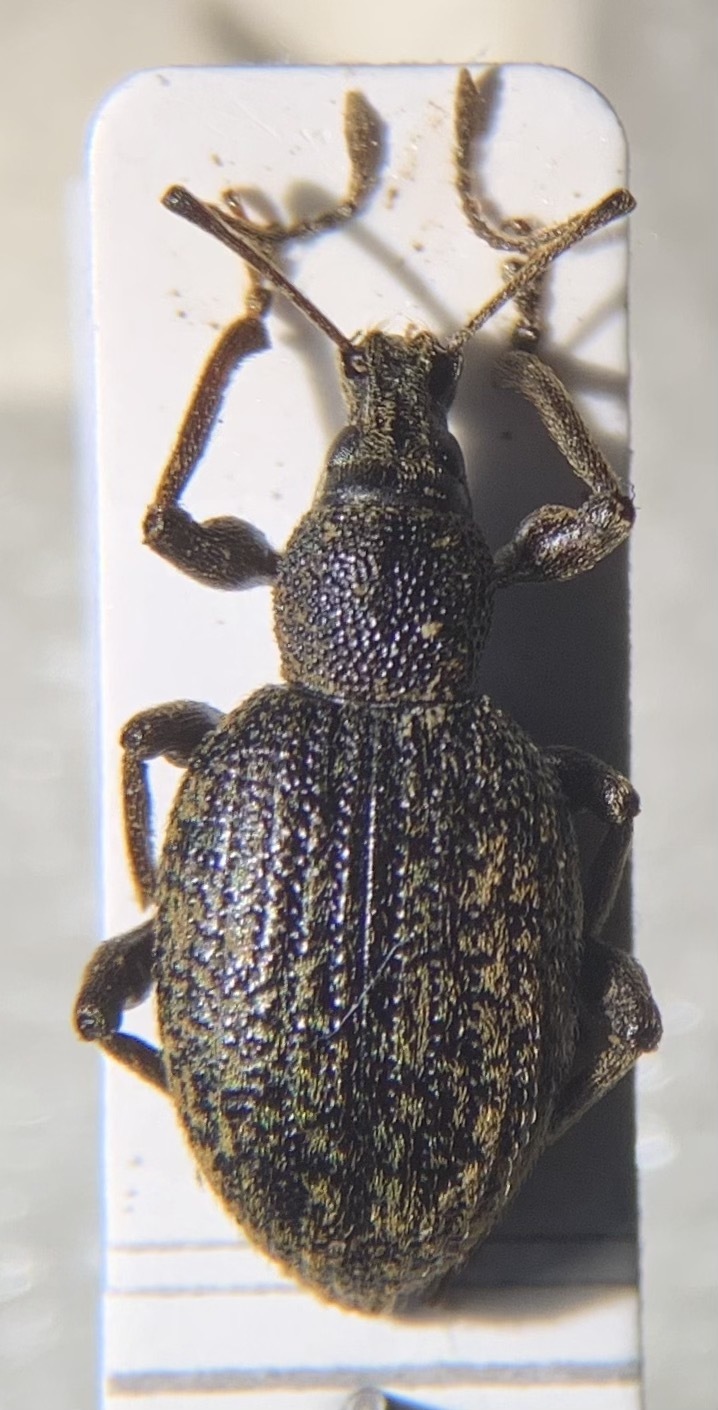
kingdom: Animalia
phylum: Arthropoda
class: Insecta
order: Coleoptera
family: Curculionidae
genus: Otiorhynchus
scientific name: Otiorhynchus aurifer
